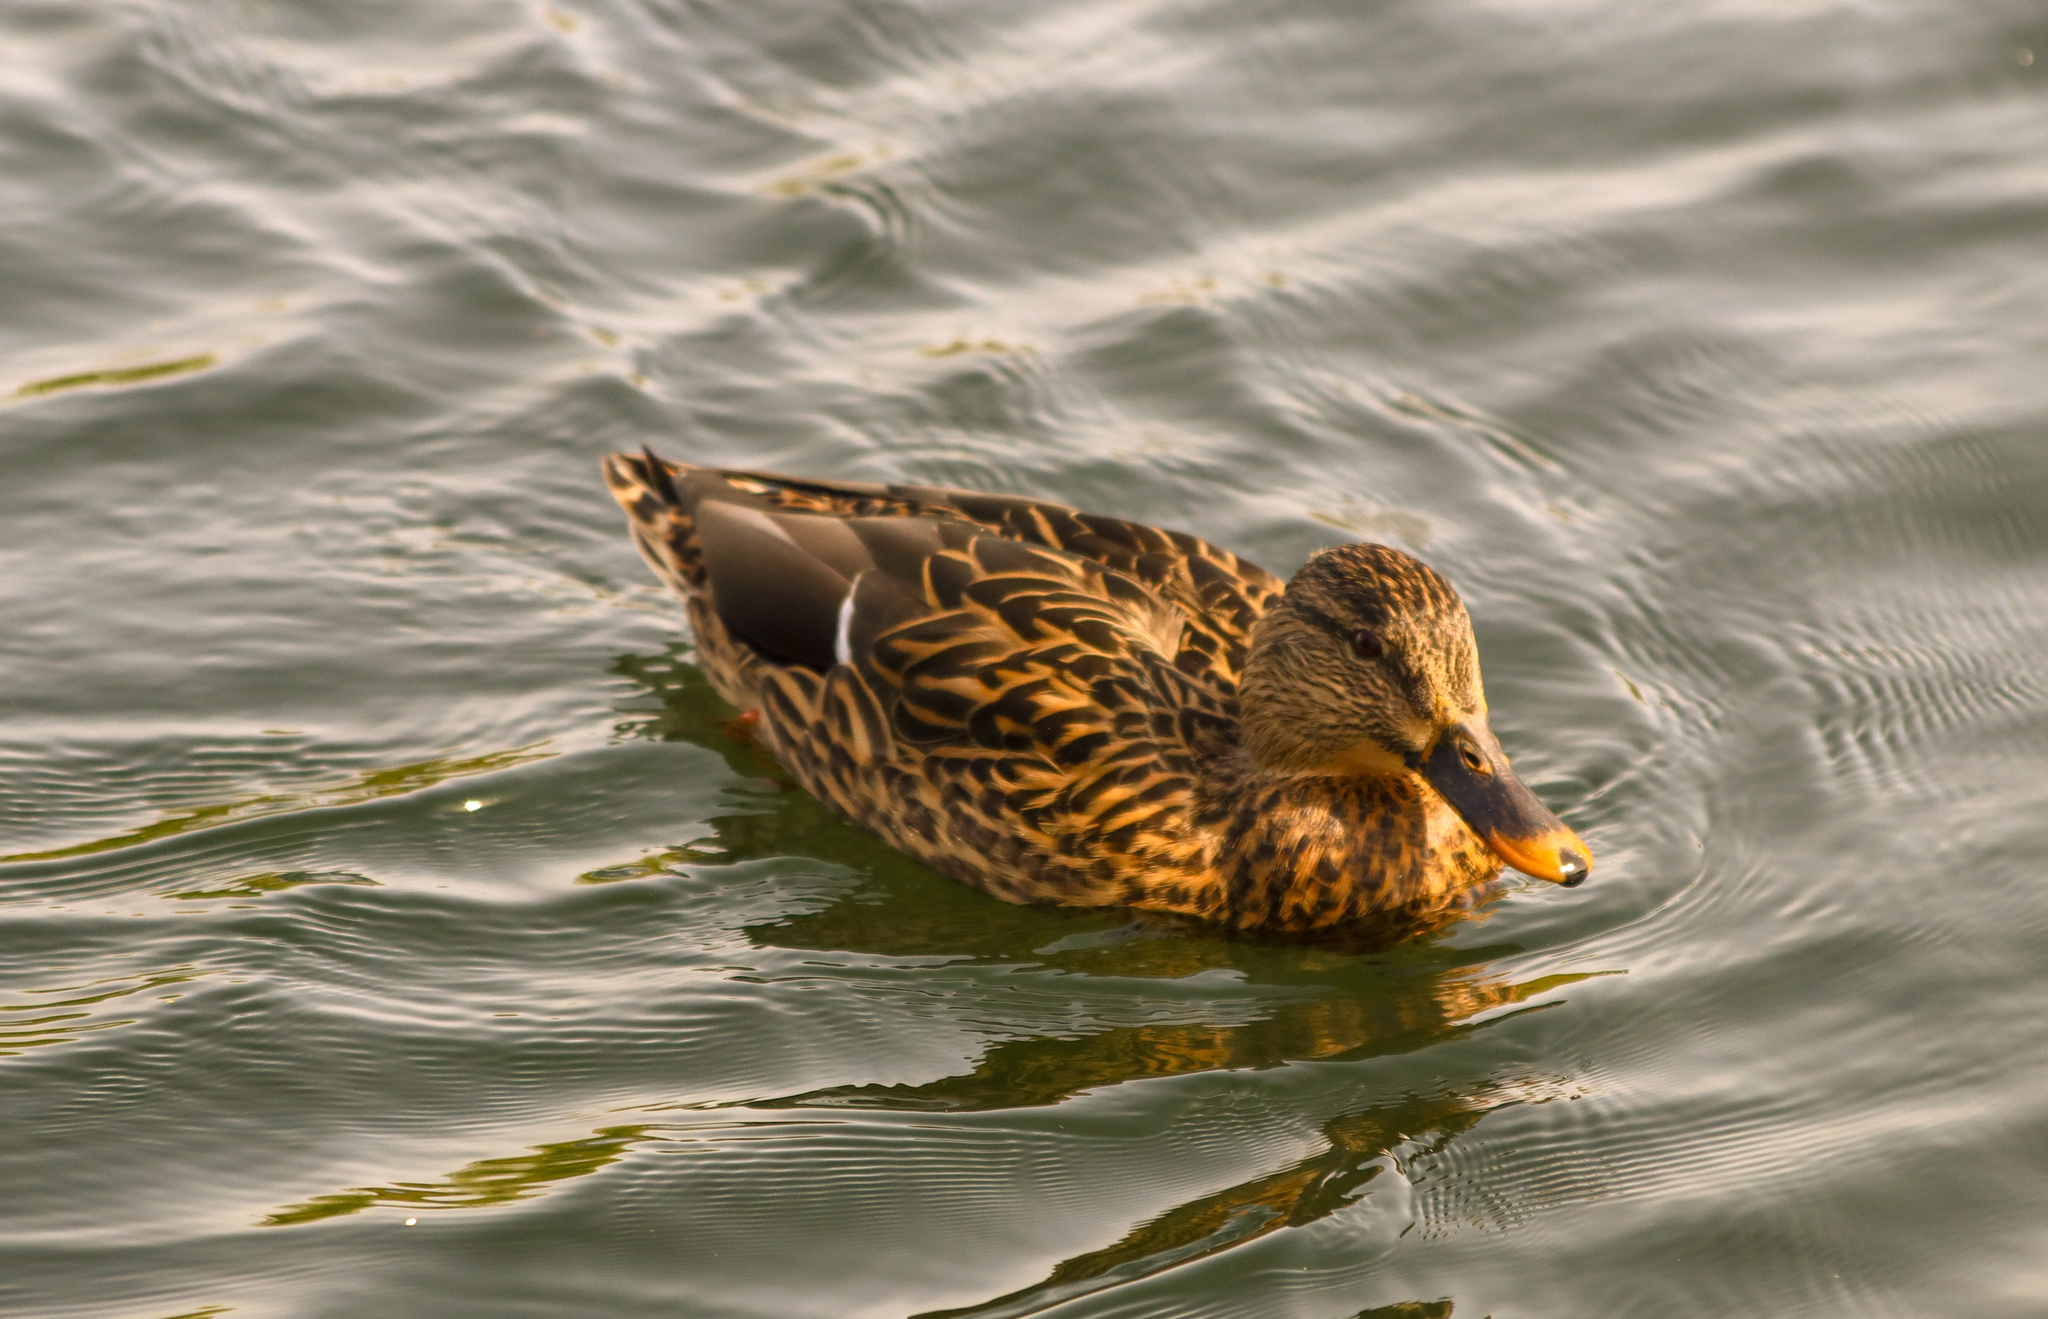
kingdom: Animalia
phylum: Chordata
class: Aves
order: Anseriformes
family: Anatidae
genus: Anas
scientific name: Anas platyrhynchos
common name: Mallard
